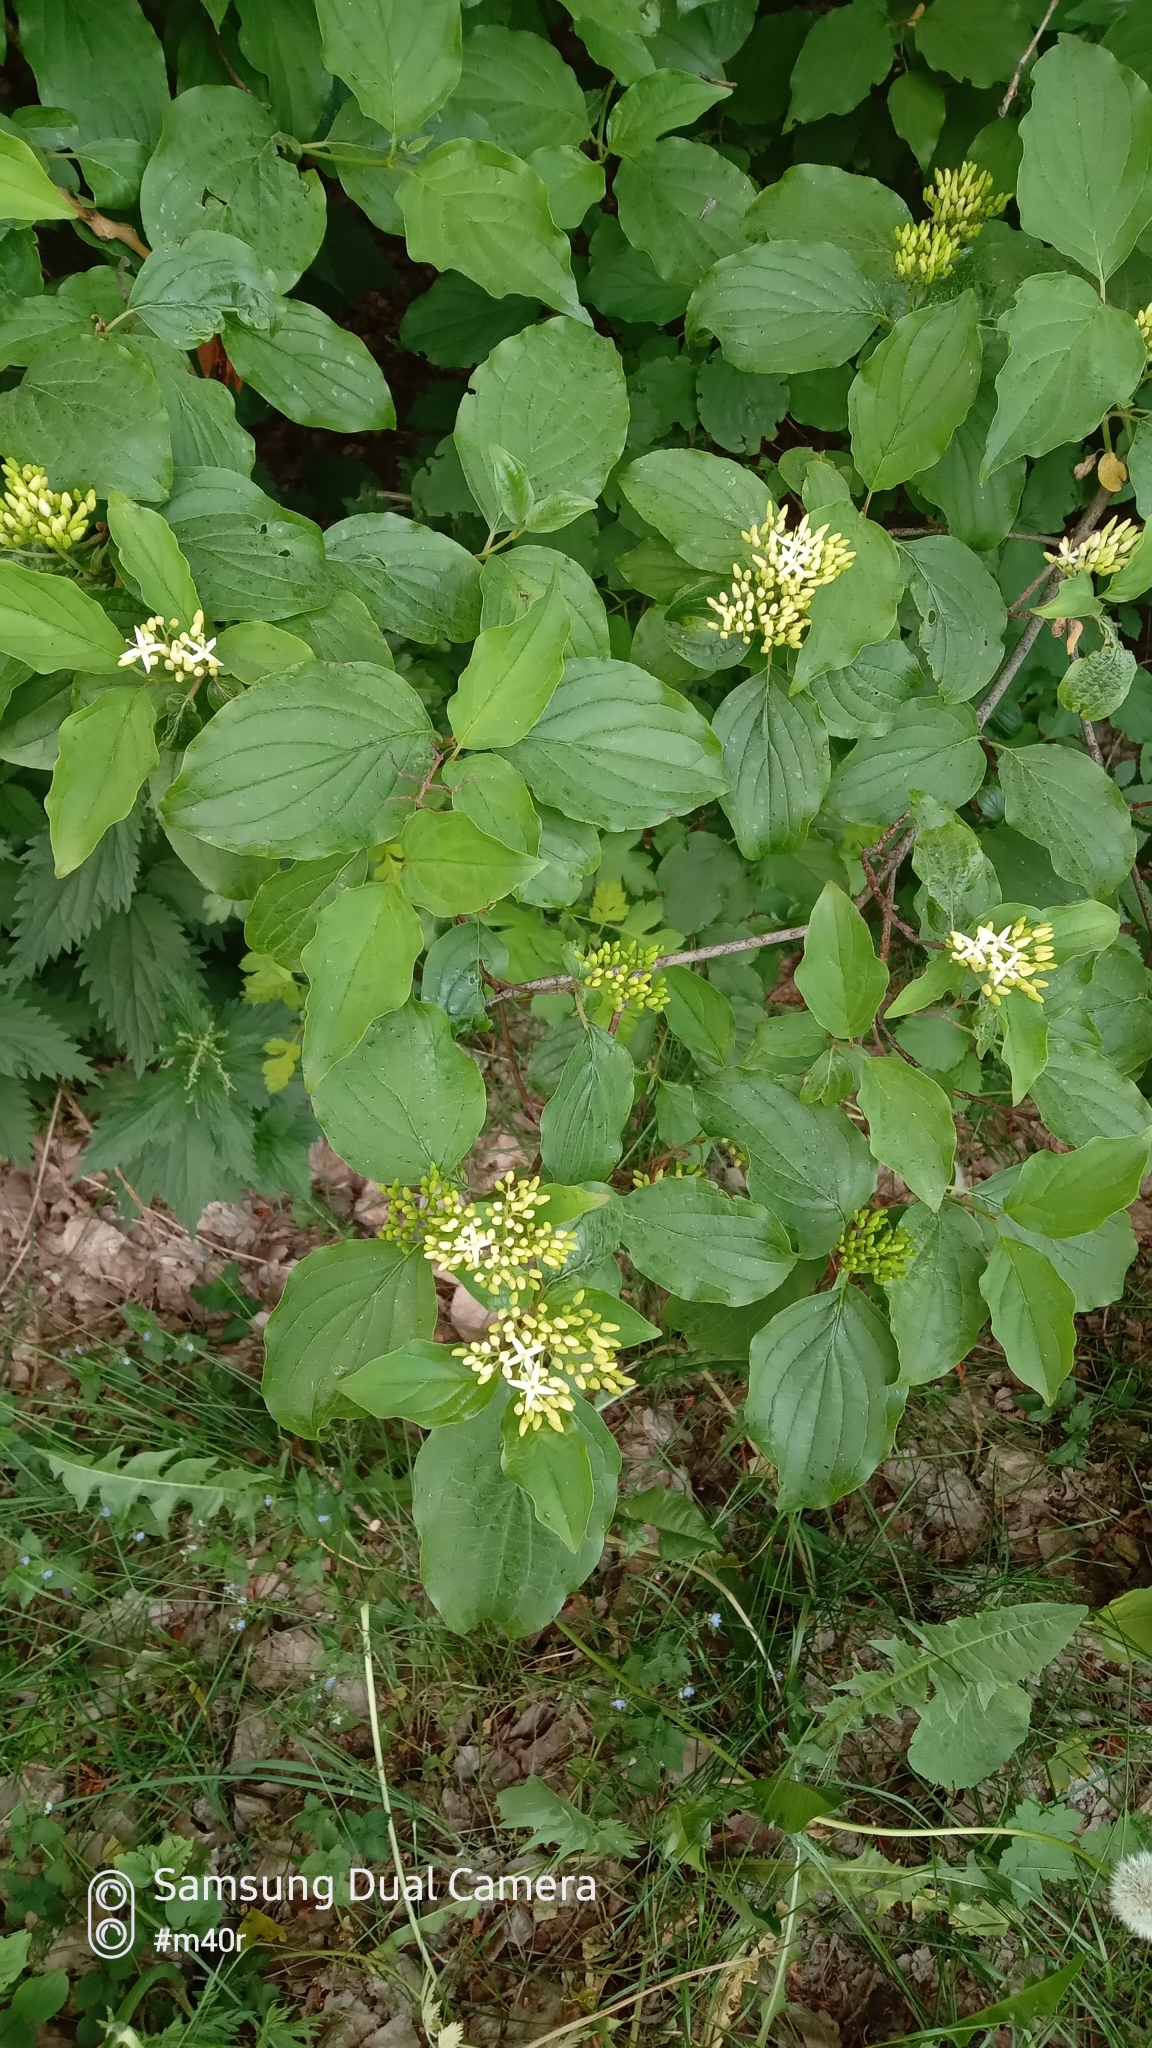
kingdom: Plantae
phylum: Tracheophyta
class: Magnoliopsida
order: Cornales
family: Cornaceae
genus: Cornus
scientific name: Cornus sanguinea
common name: Dogwood
